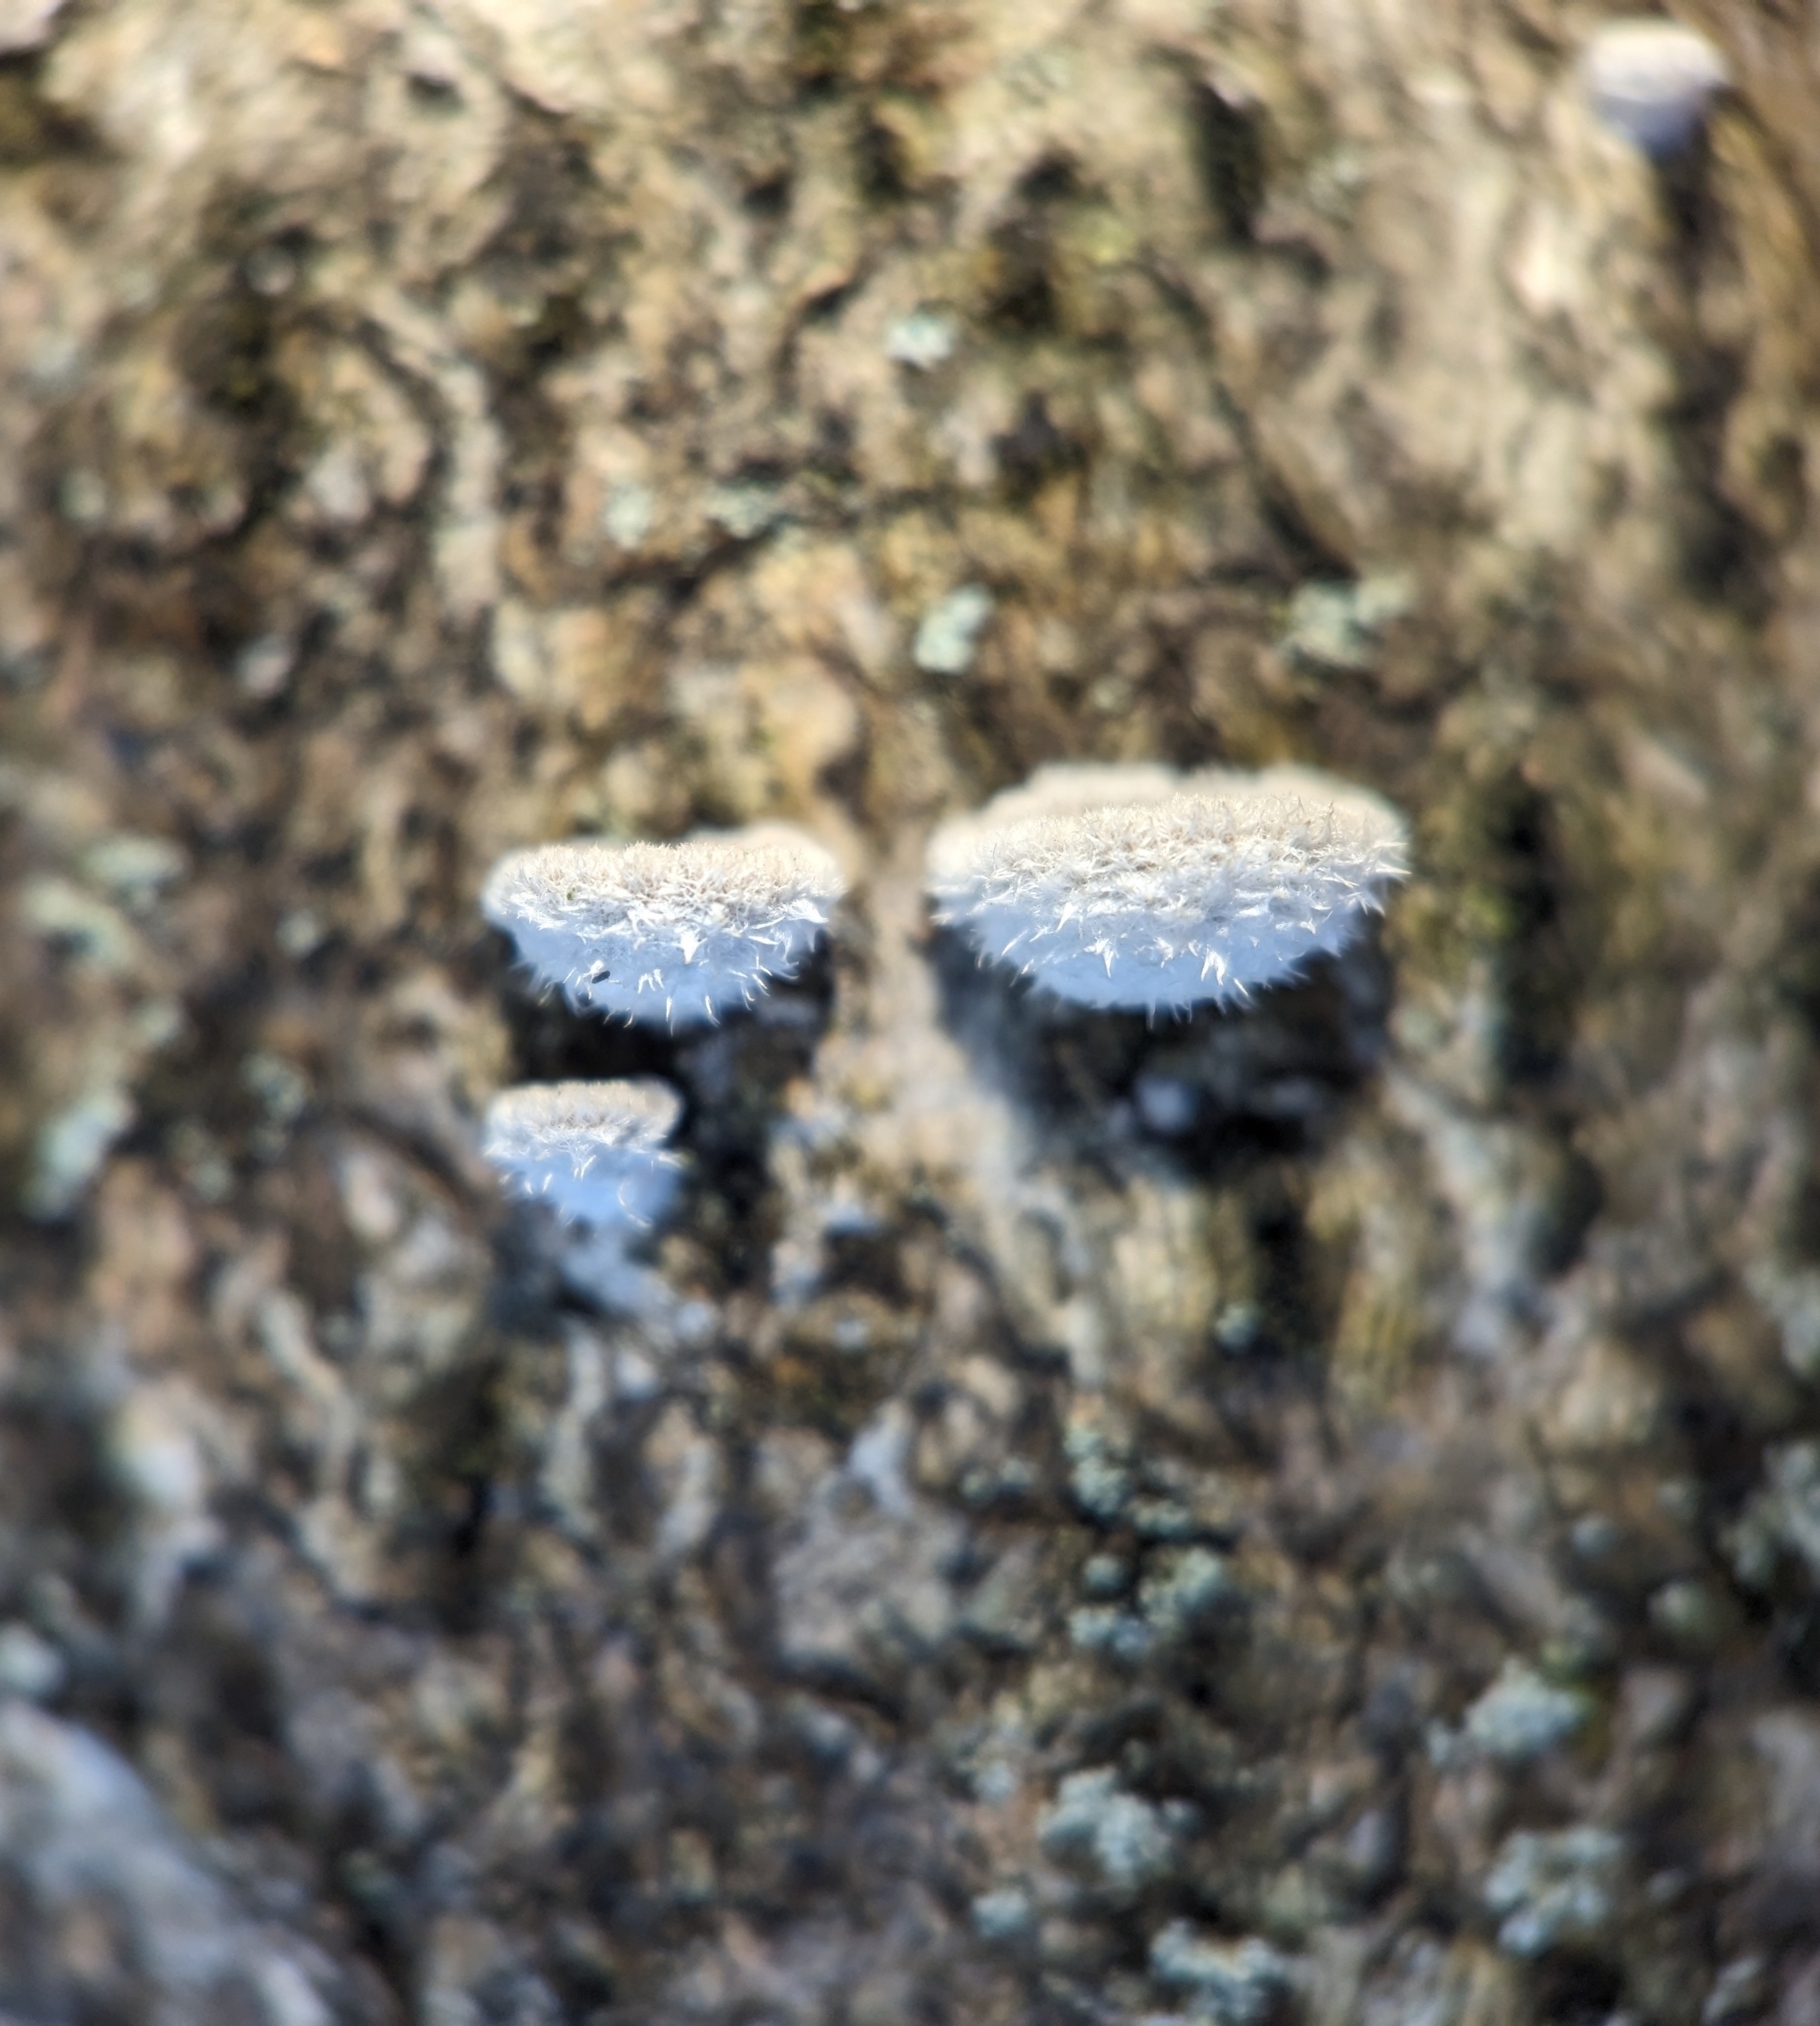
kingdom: Fungi
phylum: Basidiomycota
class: Agaricomycetes
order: Agaricales
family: Schizophyllaceae
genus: Schizophyllum
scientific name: Schizophyllum commune
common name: Common porecrust
